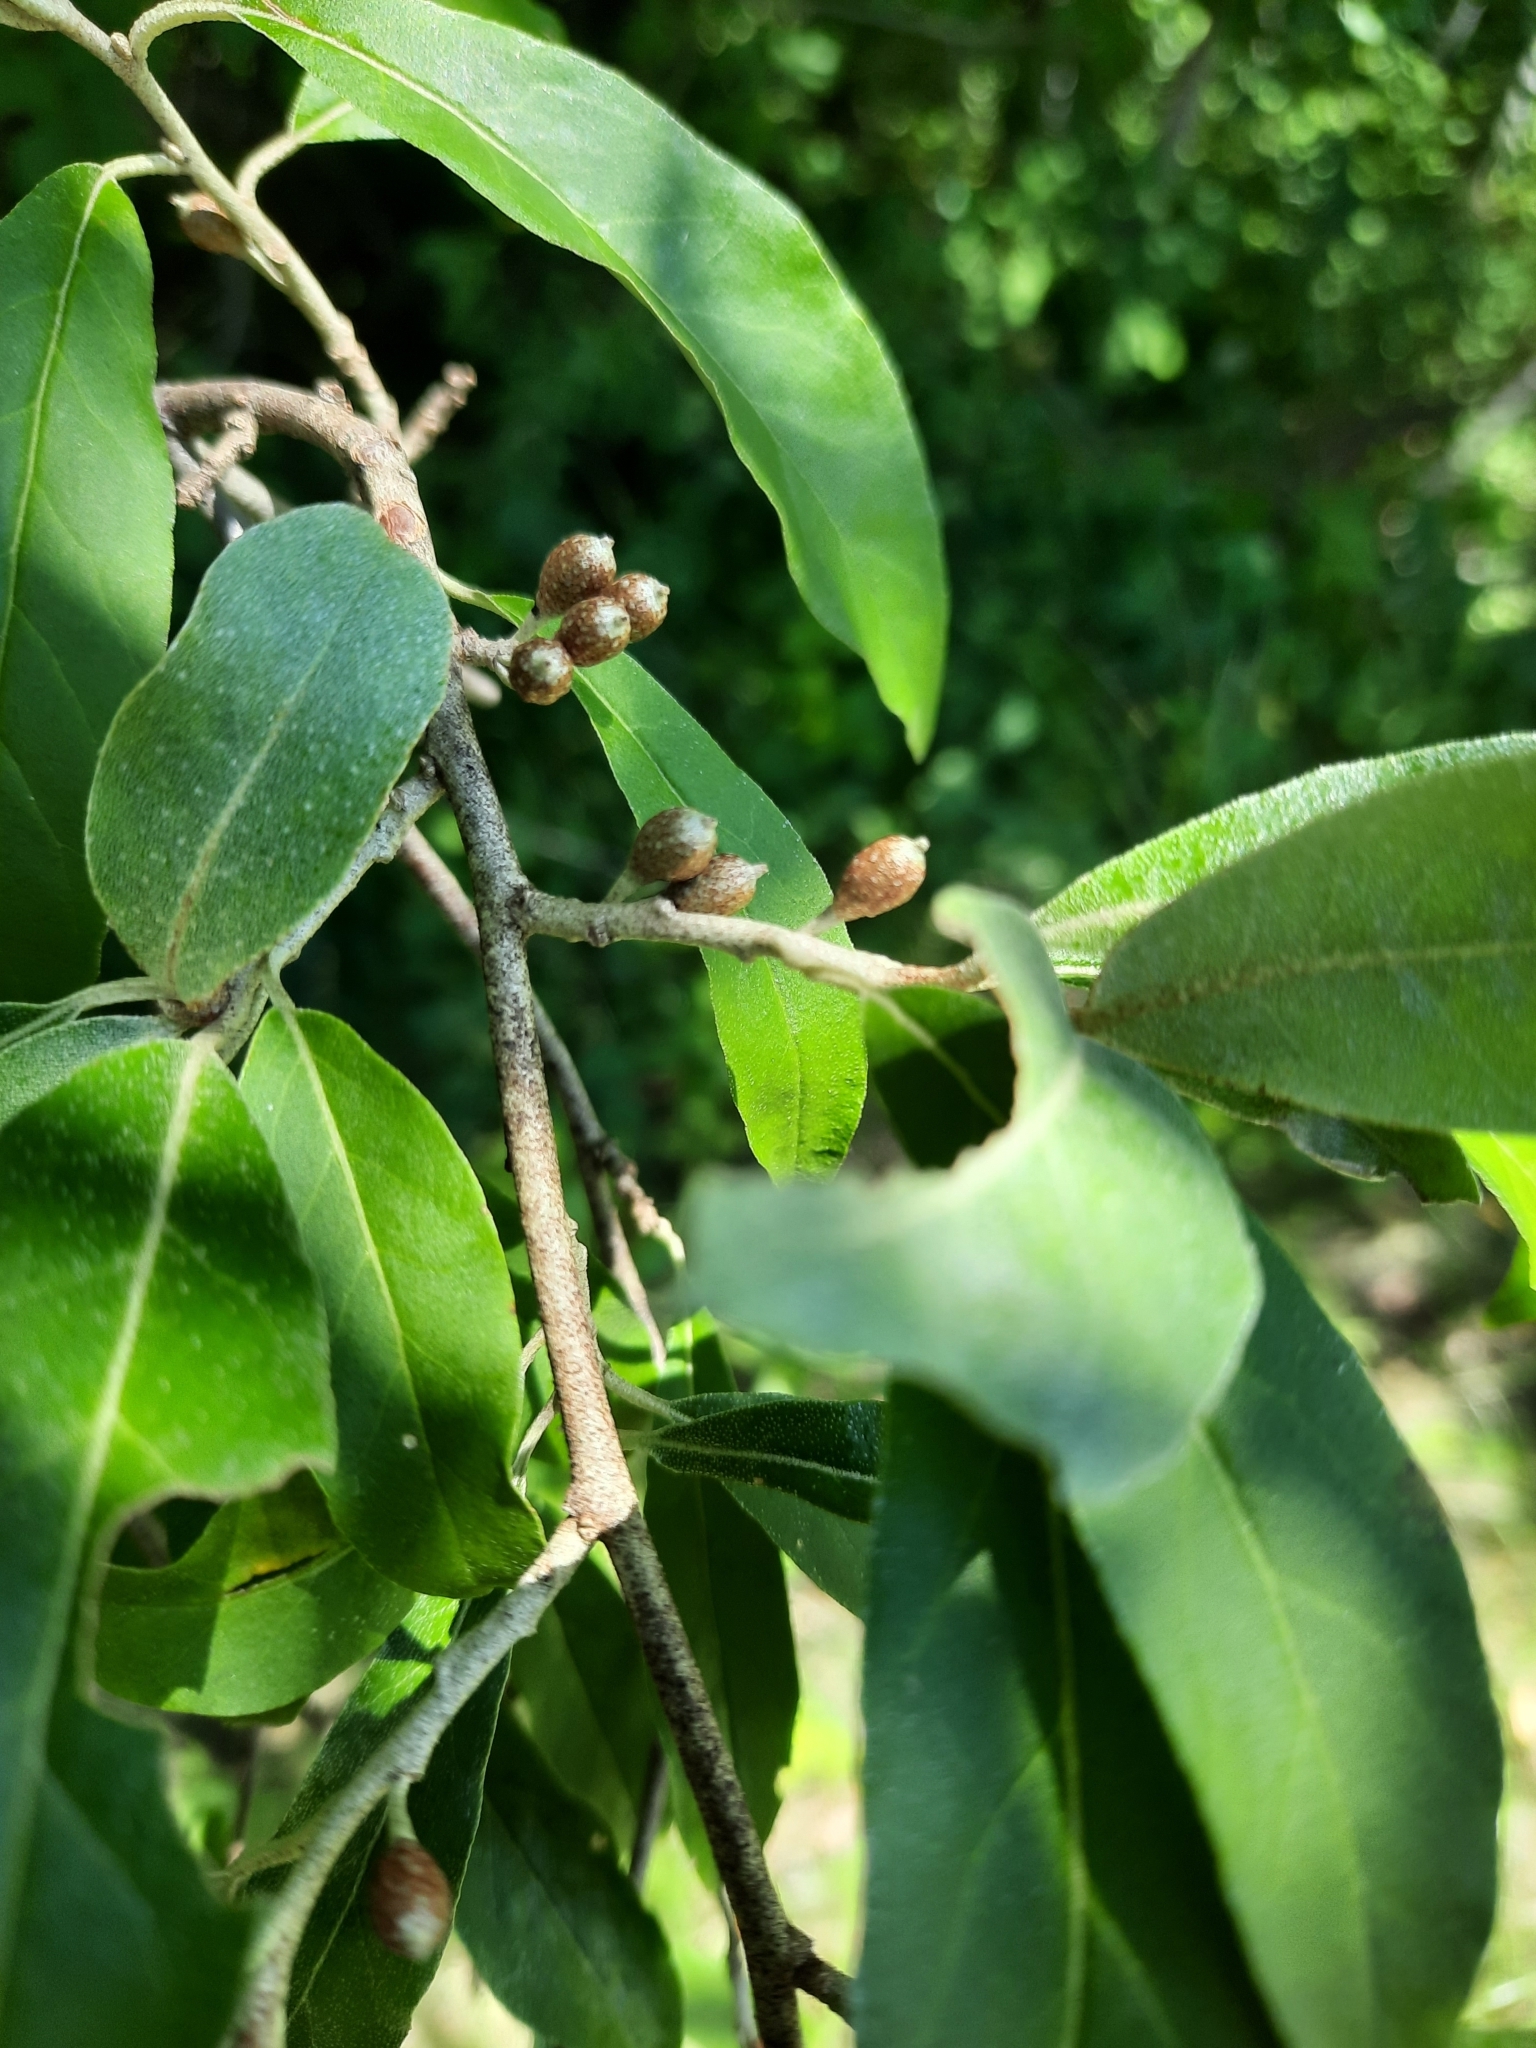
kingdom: Plantae
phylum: Tracheophyta
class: Magnoliopsida
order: Rosales
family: Elaeagnaceae
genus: Elaeagnus
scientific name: Elaeagnus umbellata
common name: Autumn olive
